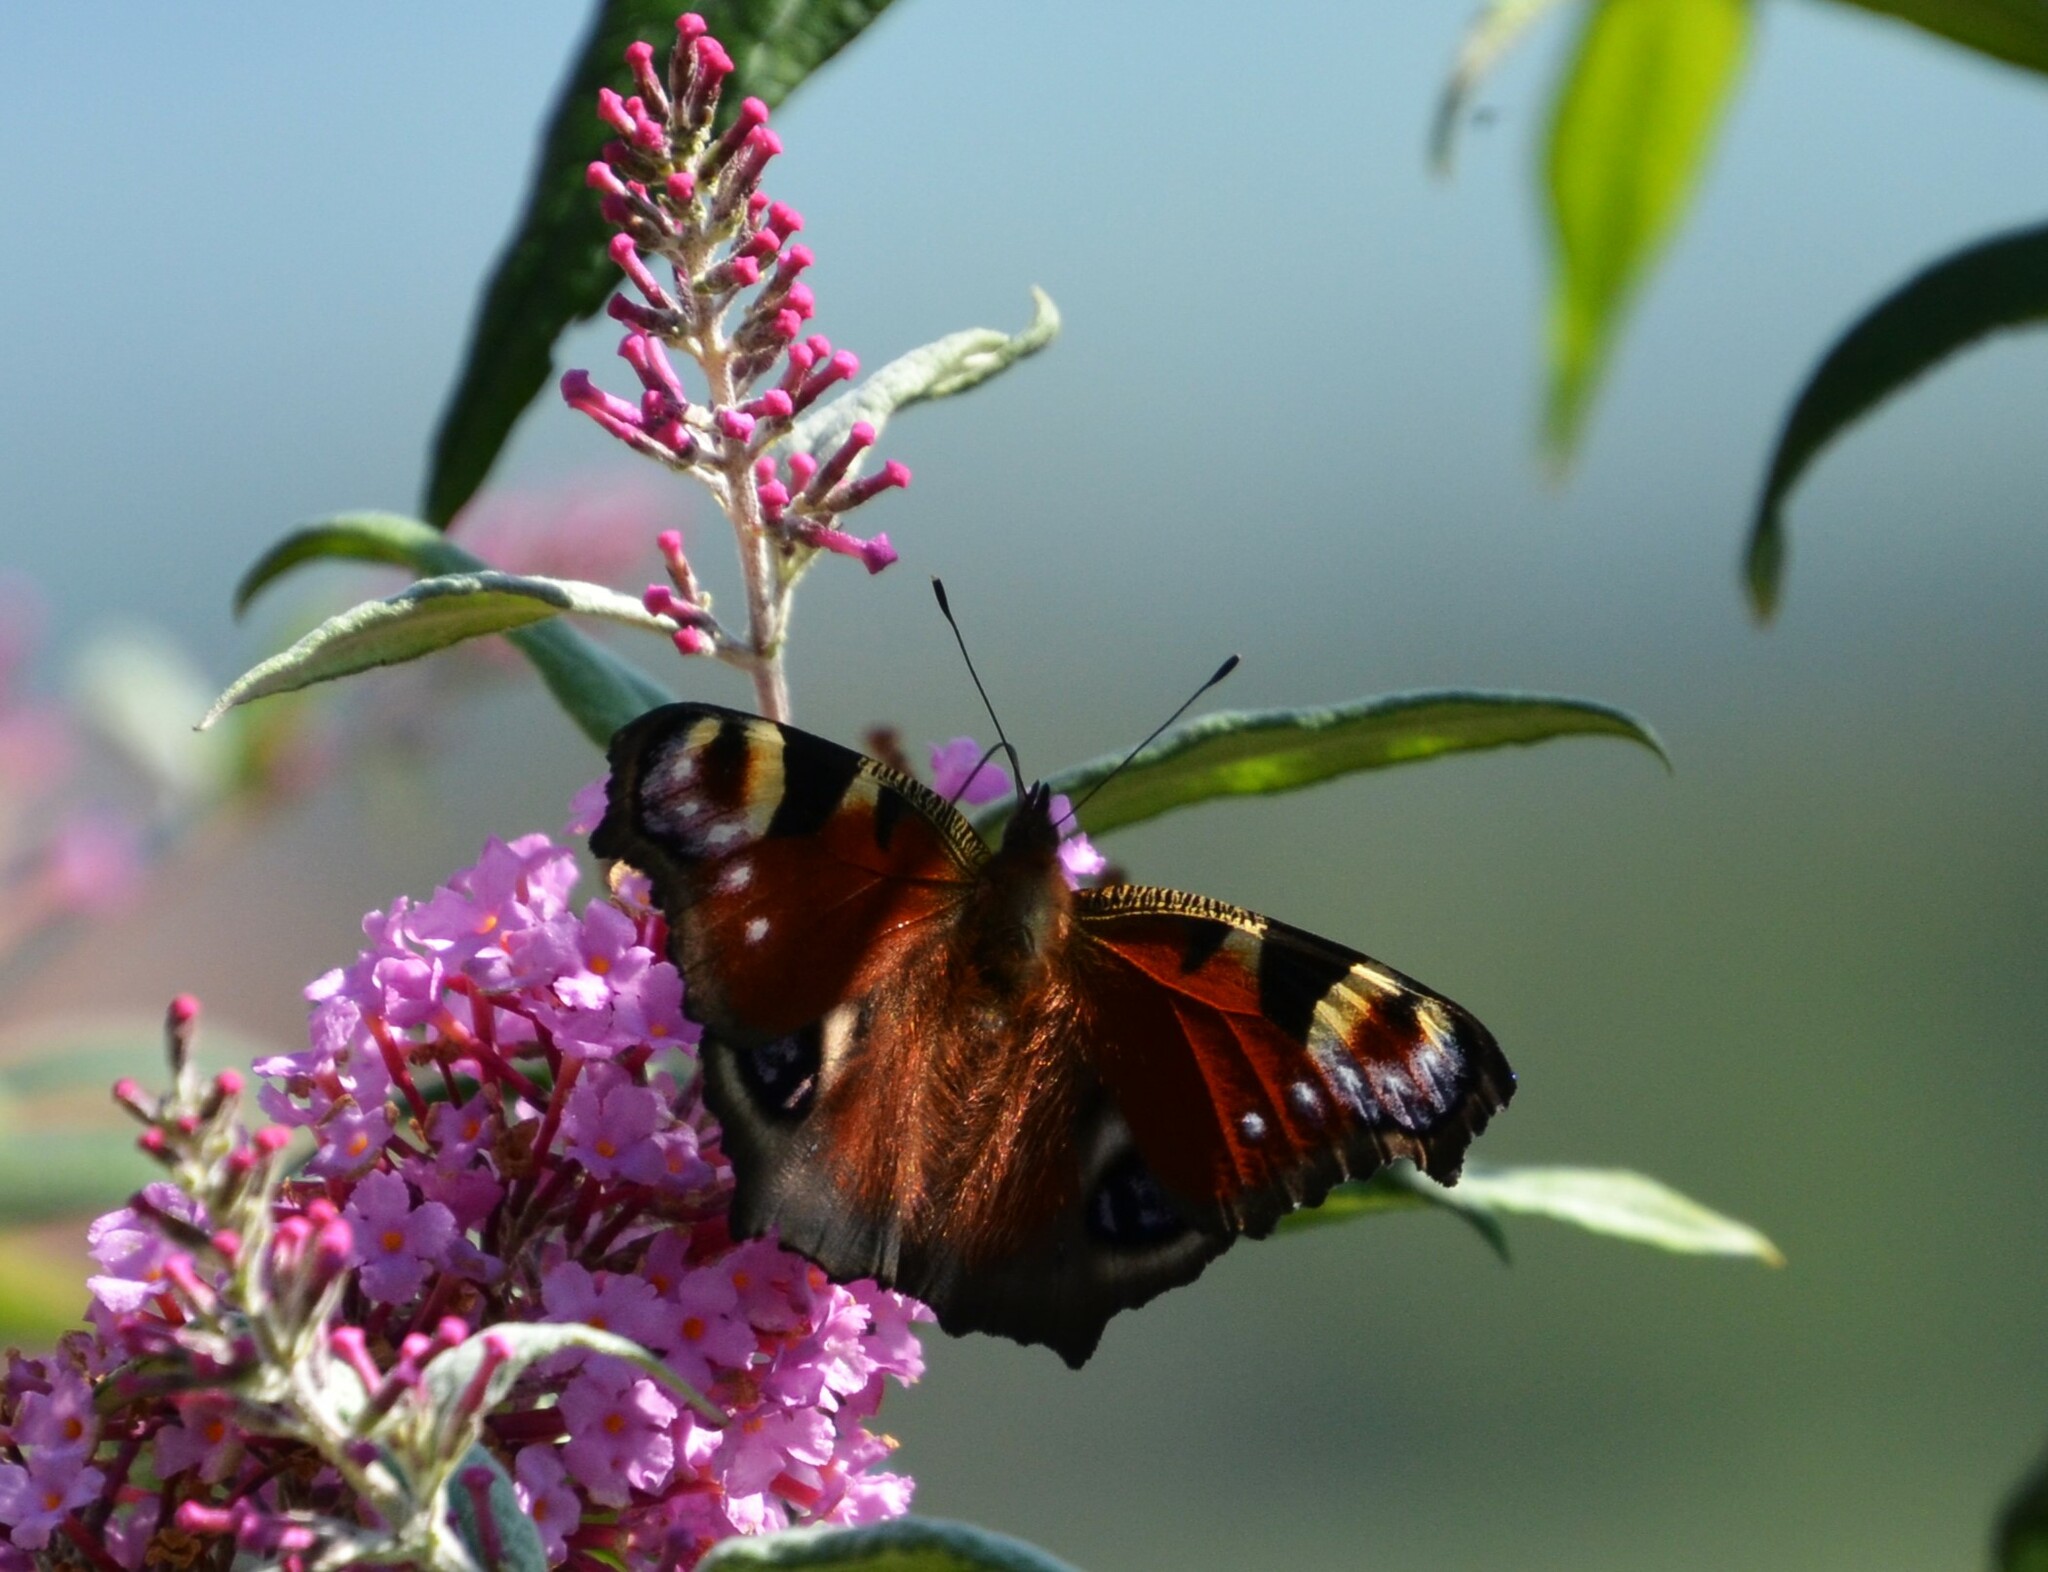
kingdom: Animalia
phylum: Arthropoda
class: Insecta
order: Lepidoptera
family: Nymphalidae
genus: Aglais
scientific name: Aglais io
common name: Peacock
